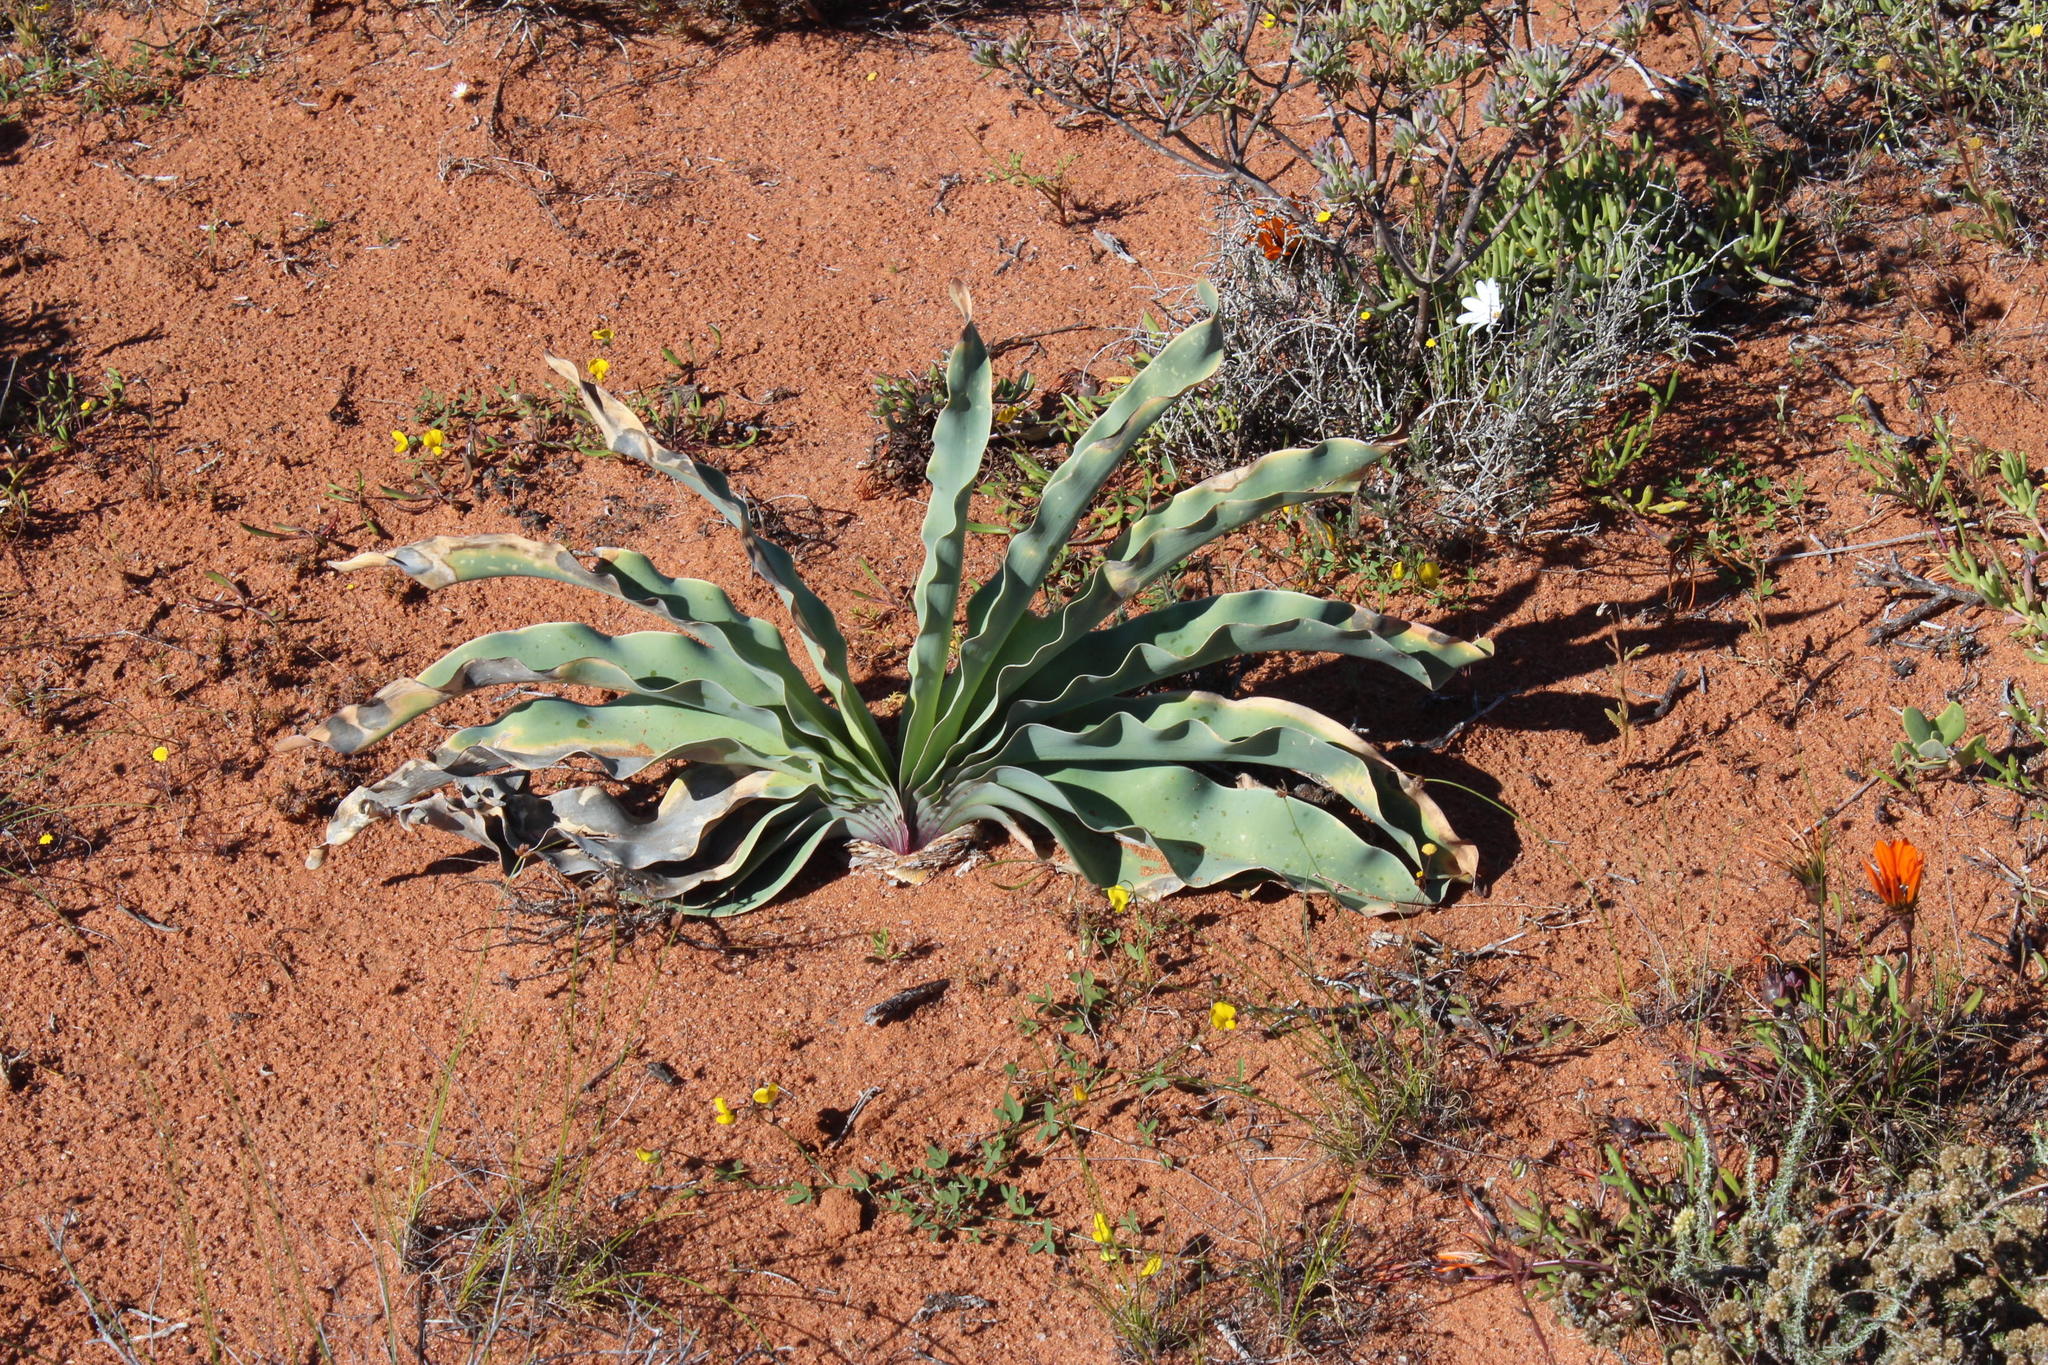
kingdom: Plantae
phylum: Tracheophyta
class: Liliopsida
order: Asparagales
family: Amaryllidaceae
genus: Boophone
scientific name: Boophone haemanthoides
